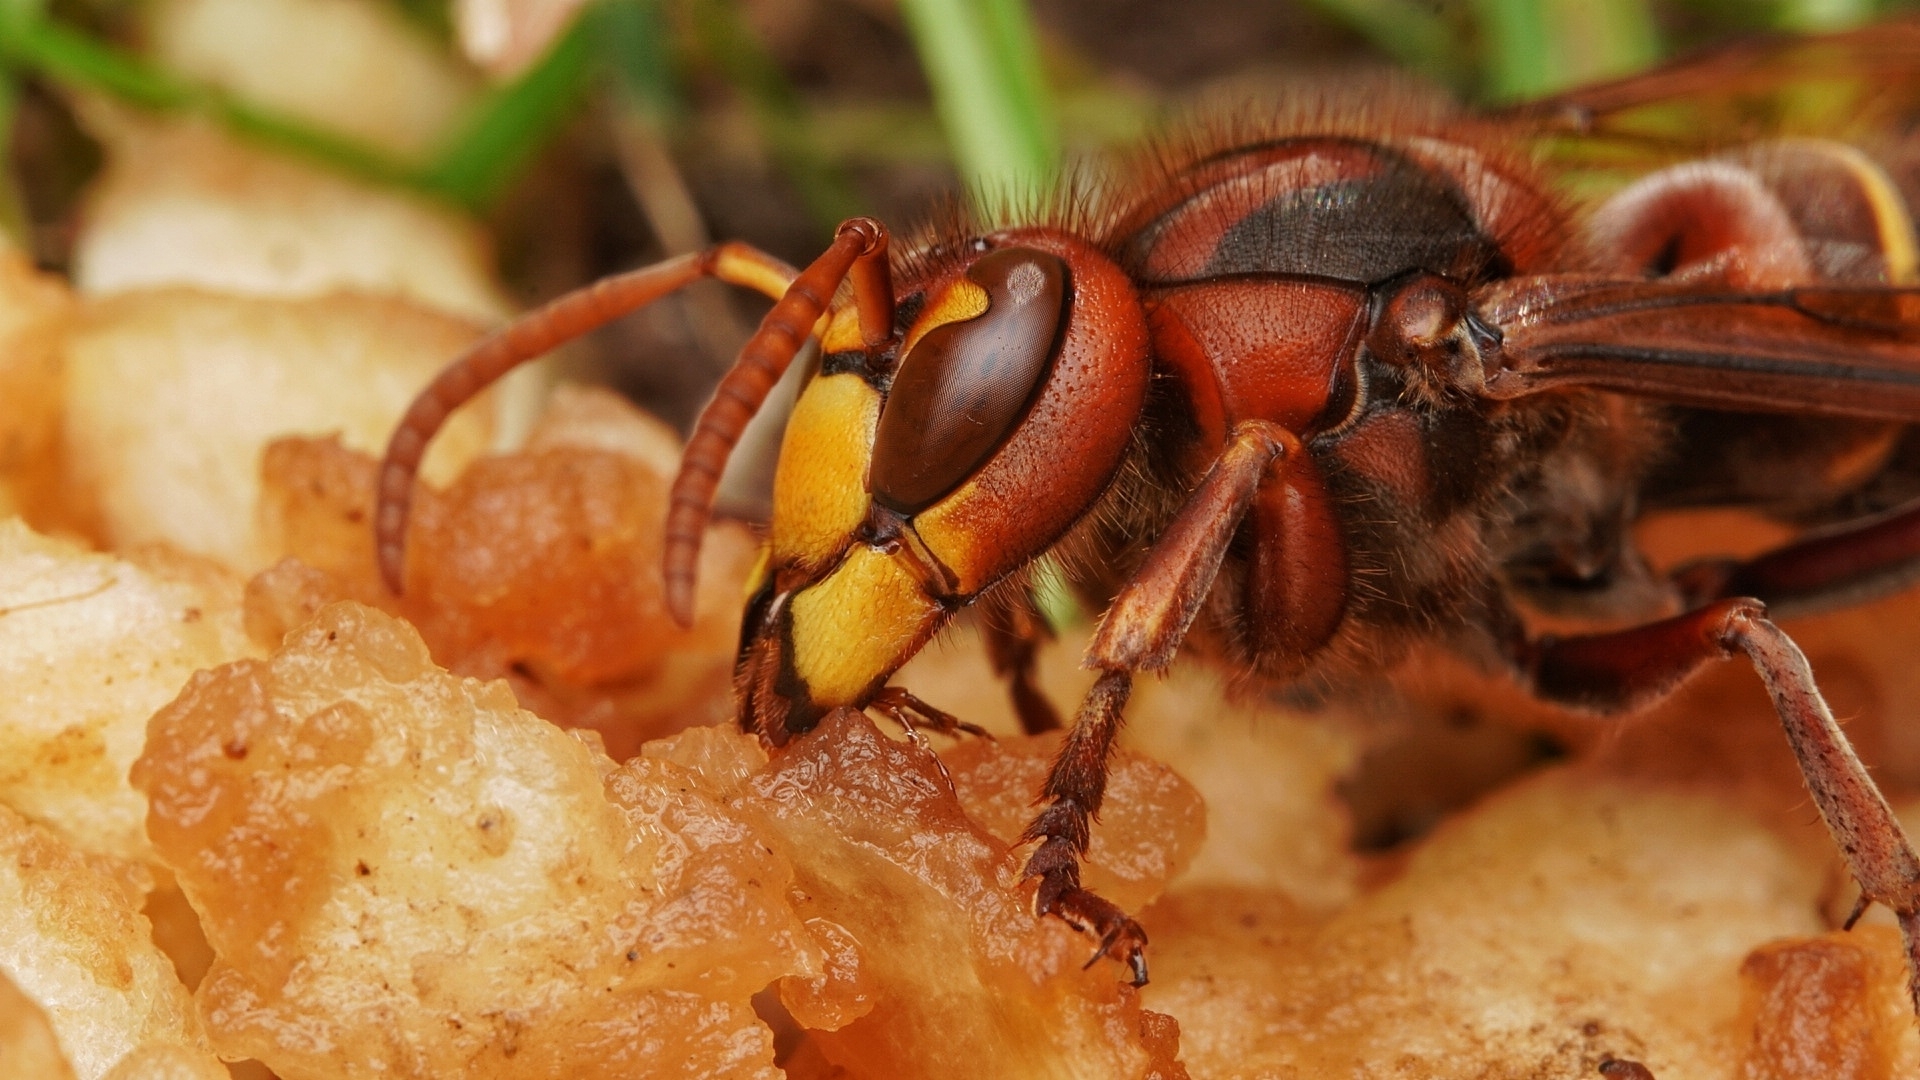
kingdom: Animalia
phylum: Arthropoda
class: Insecta
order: Hymenoptera
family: Vespidae
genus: Vespa
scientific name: Vespa crabro
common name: Hornet
